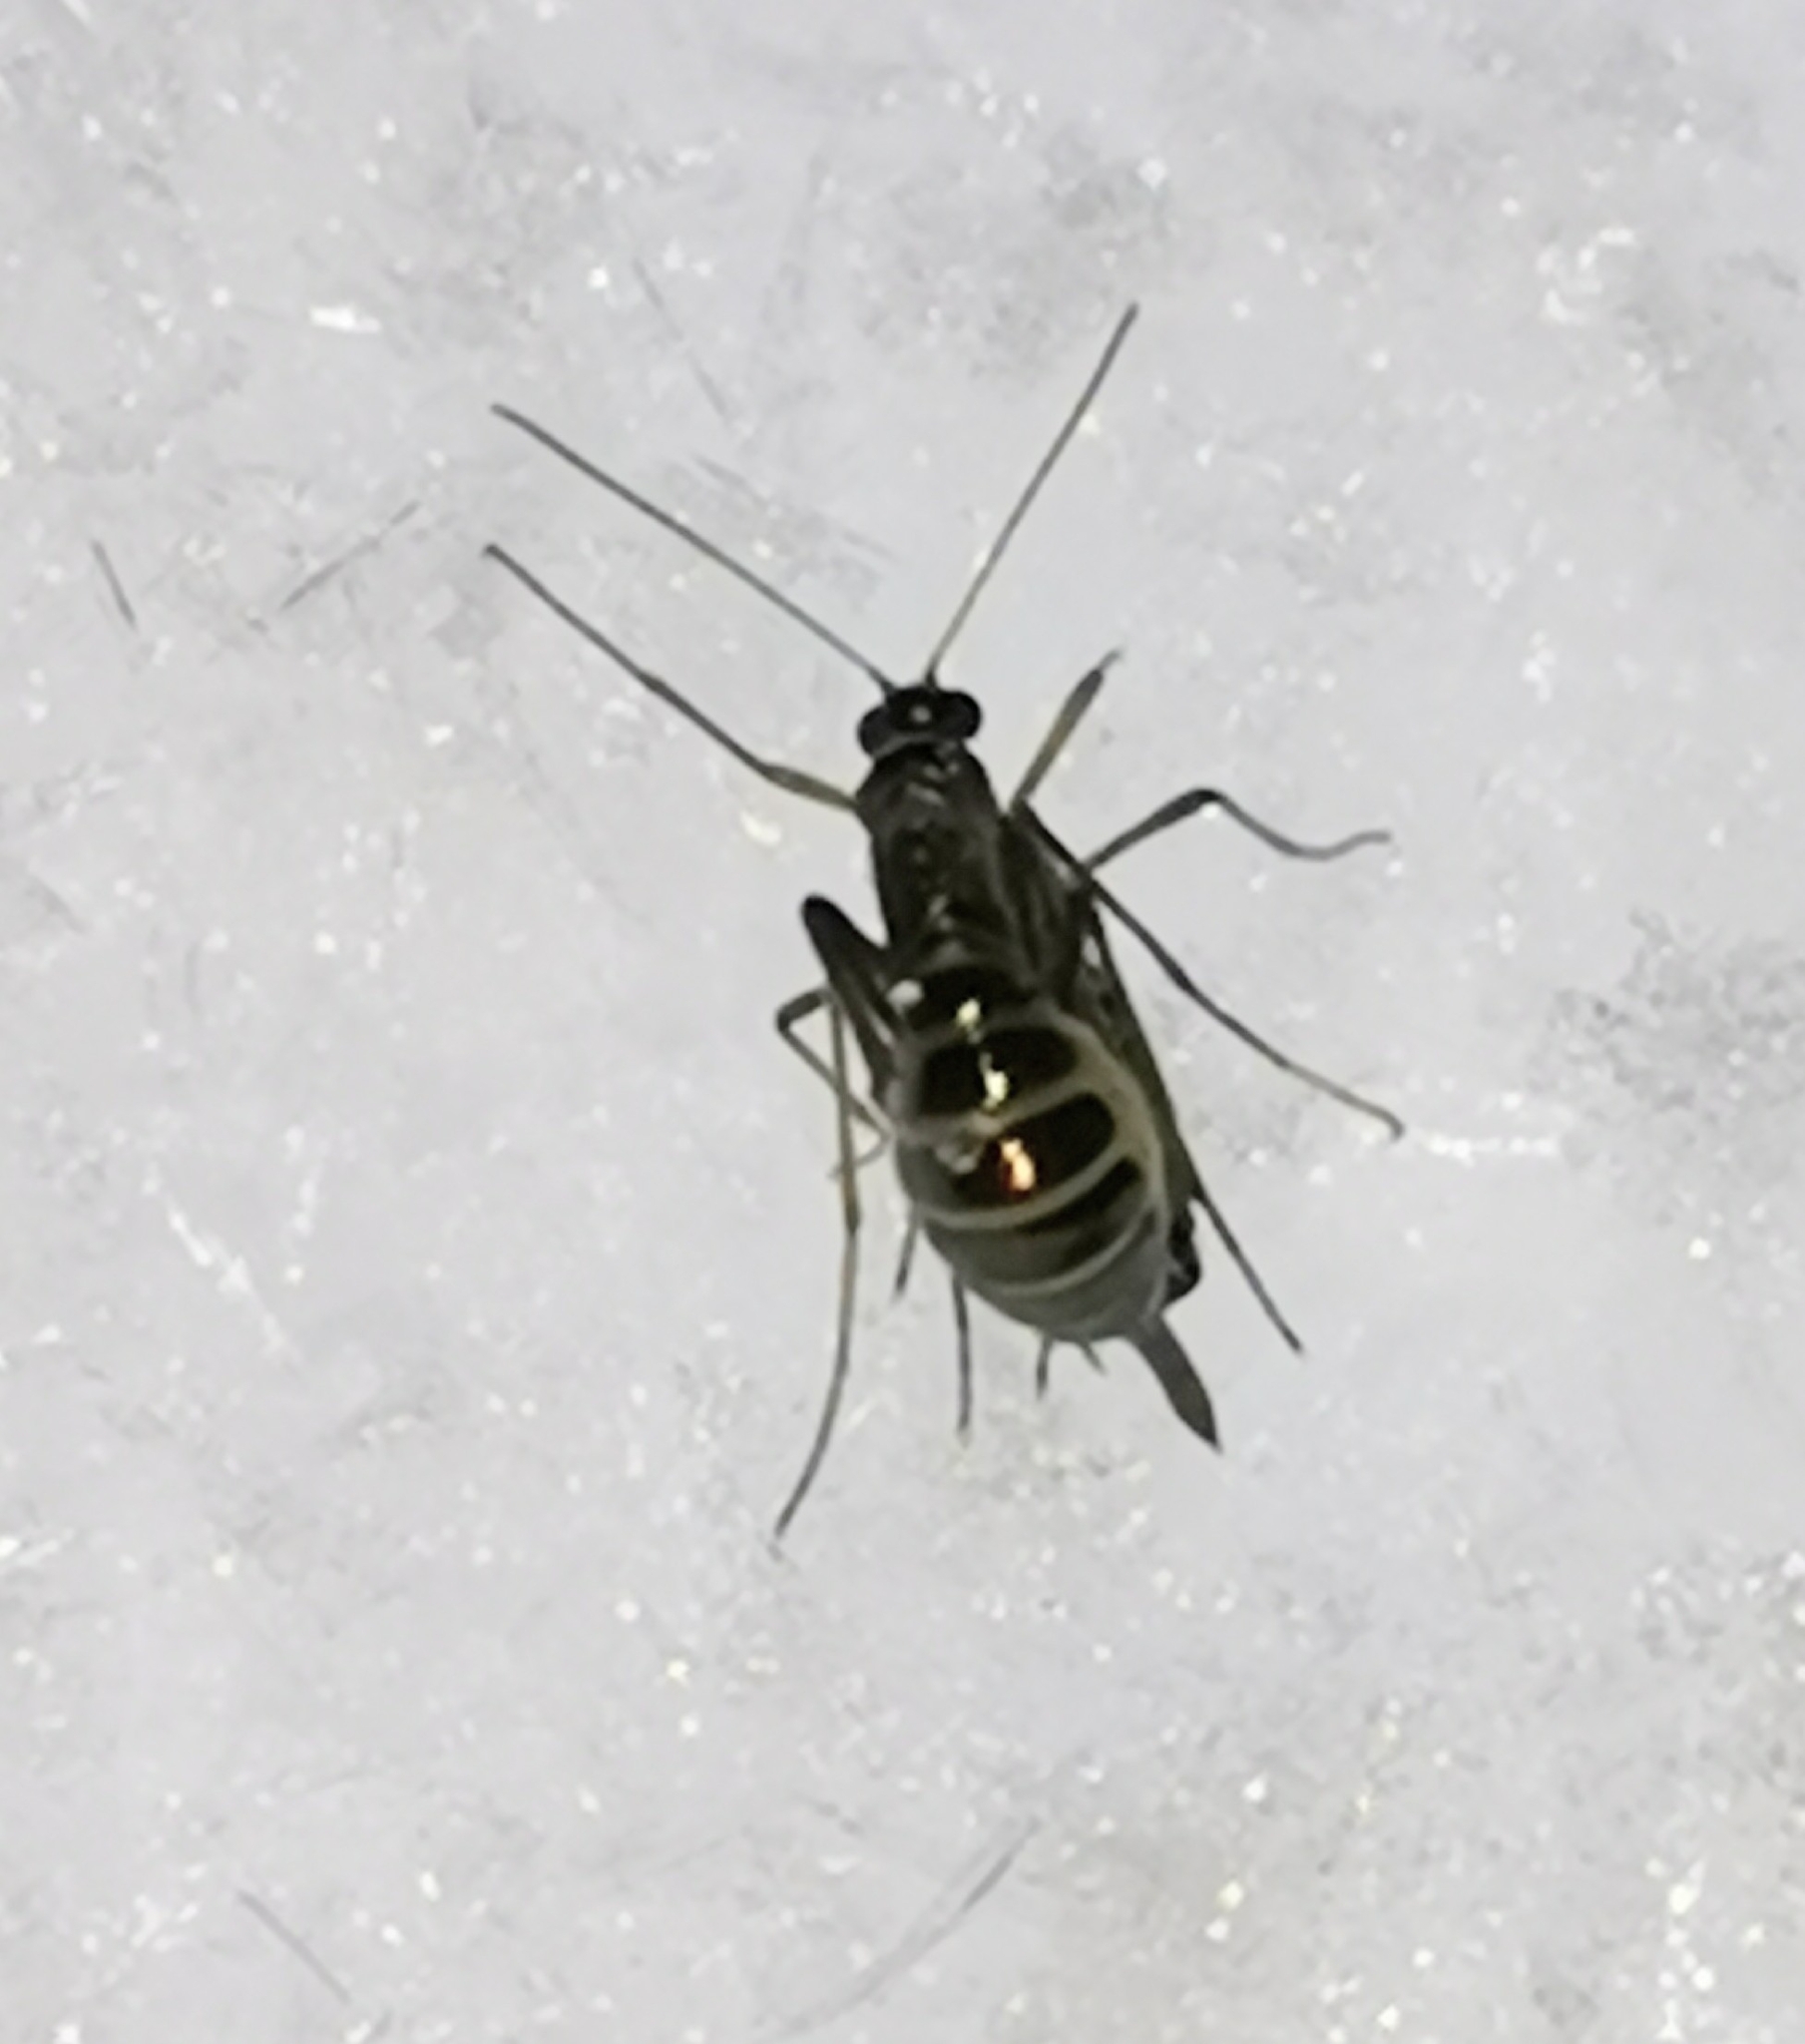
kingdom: Animalia
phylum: Arthropoda
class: Insecta
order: Mecoptera
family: Boreidae
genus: Boreus
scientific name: Boreus westwoodi
